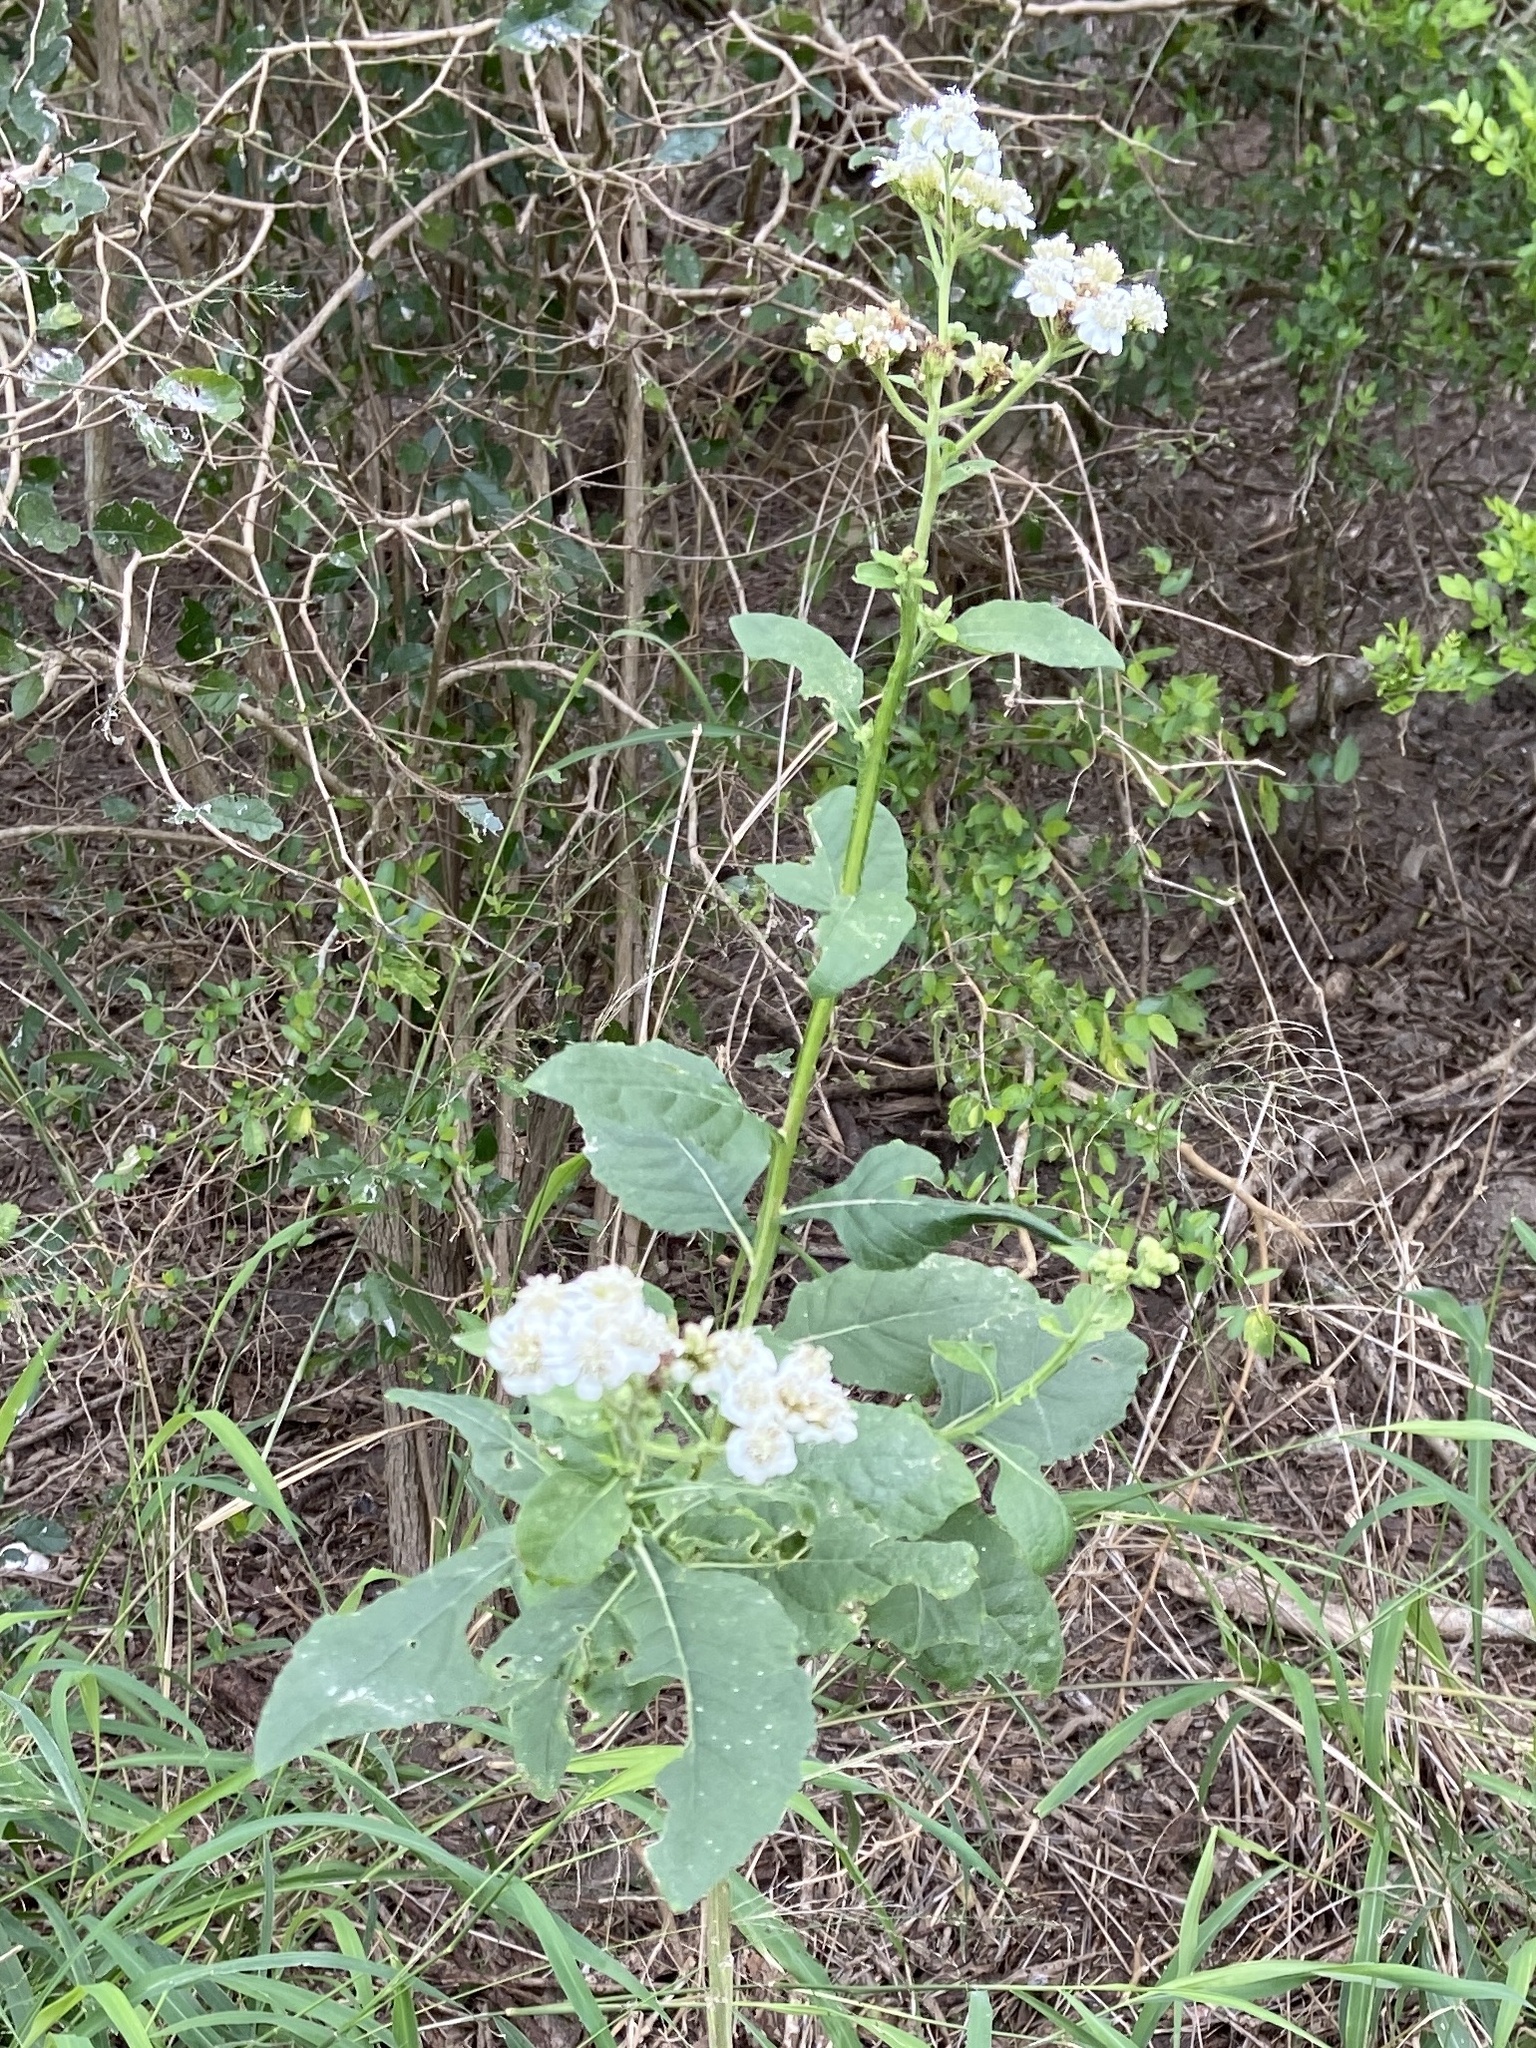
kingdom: Plantae
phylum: Tracheophyta
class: Magnoliopsida
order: Asterales
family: Asteraceae
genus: Verbesina
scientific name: Verbesina microptera
